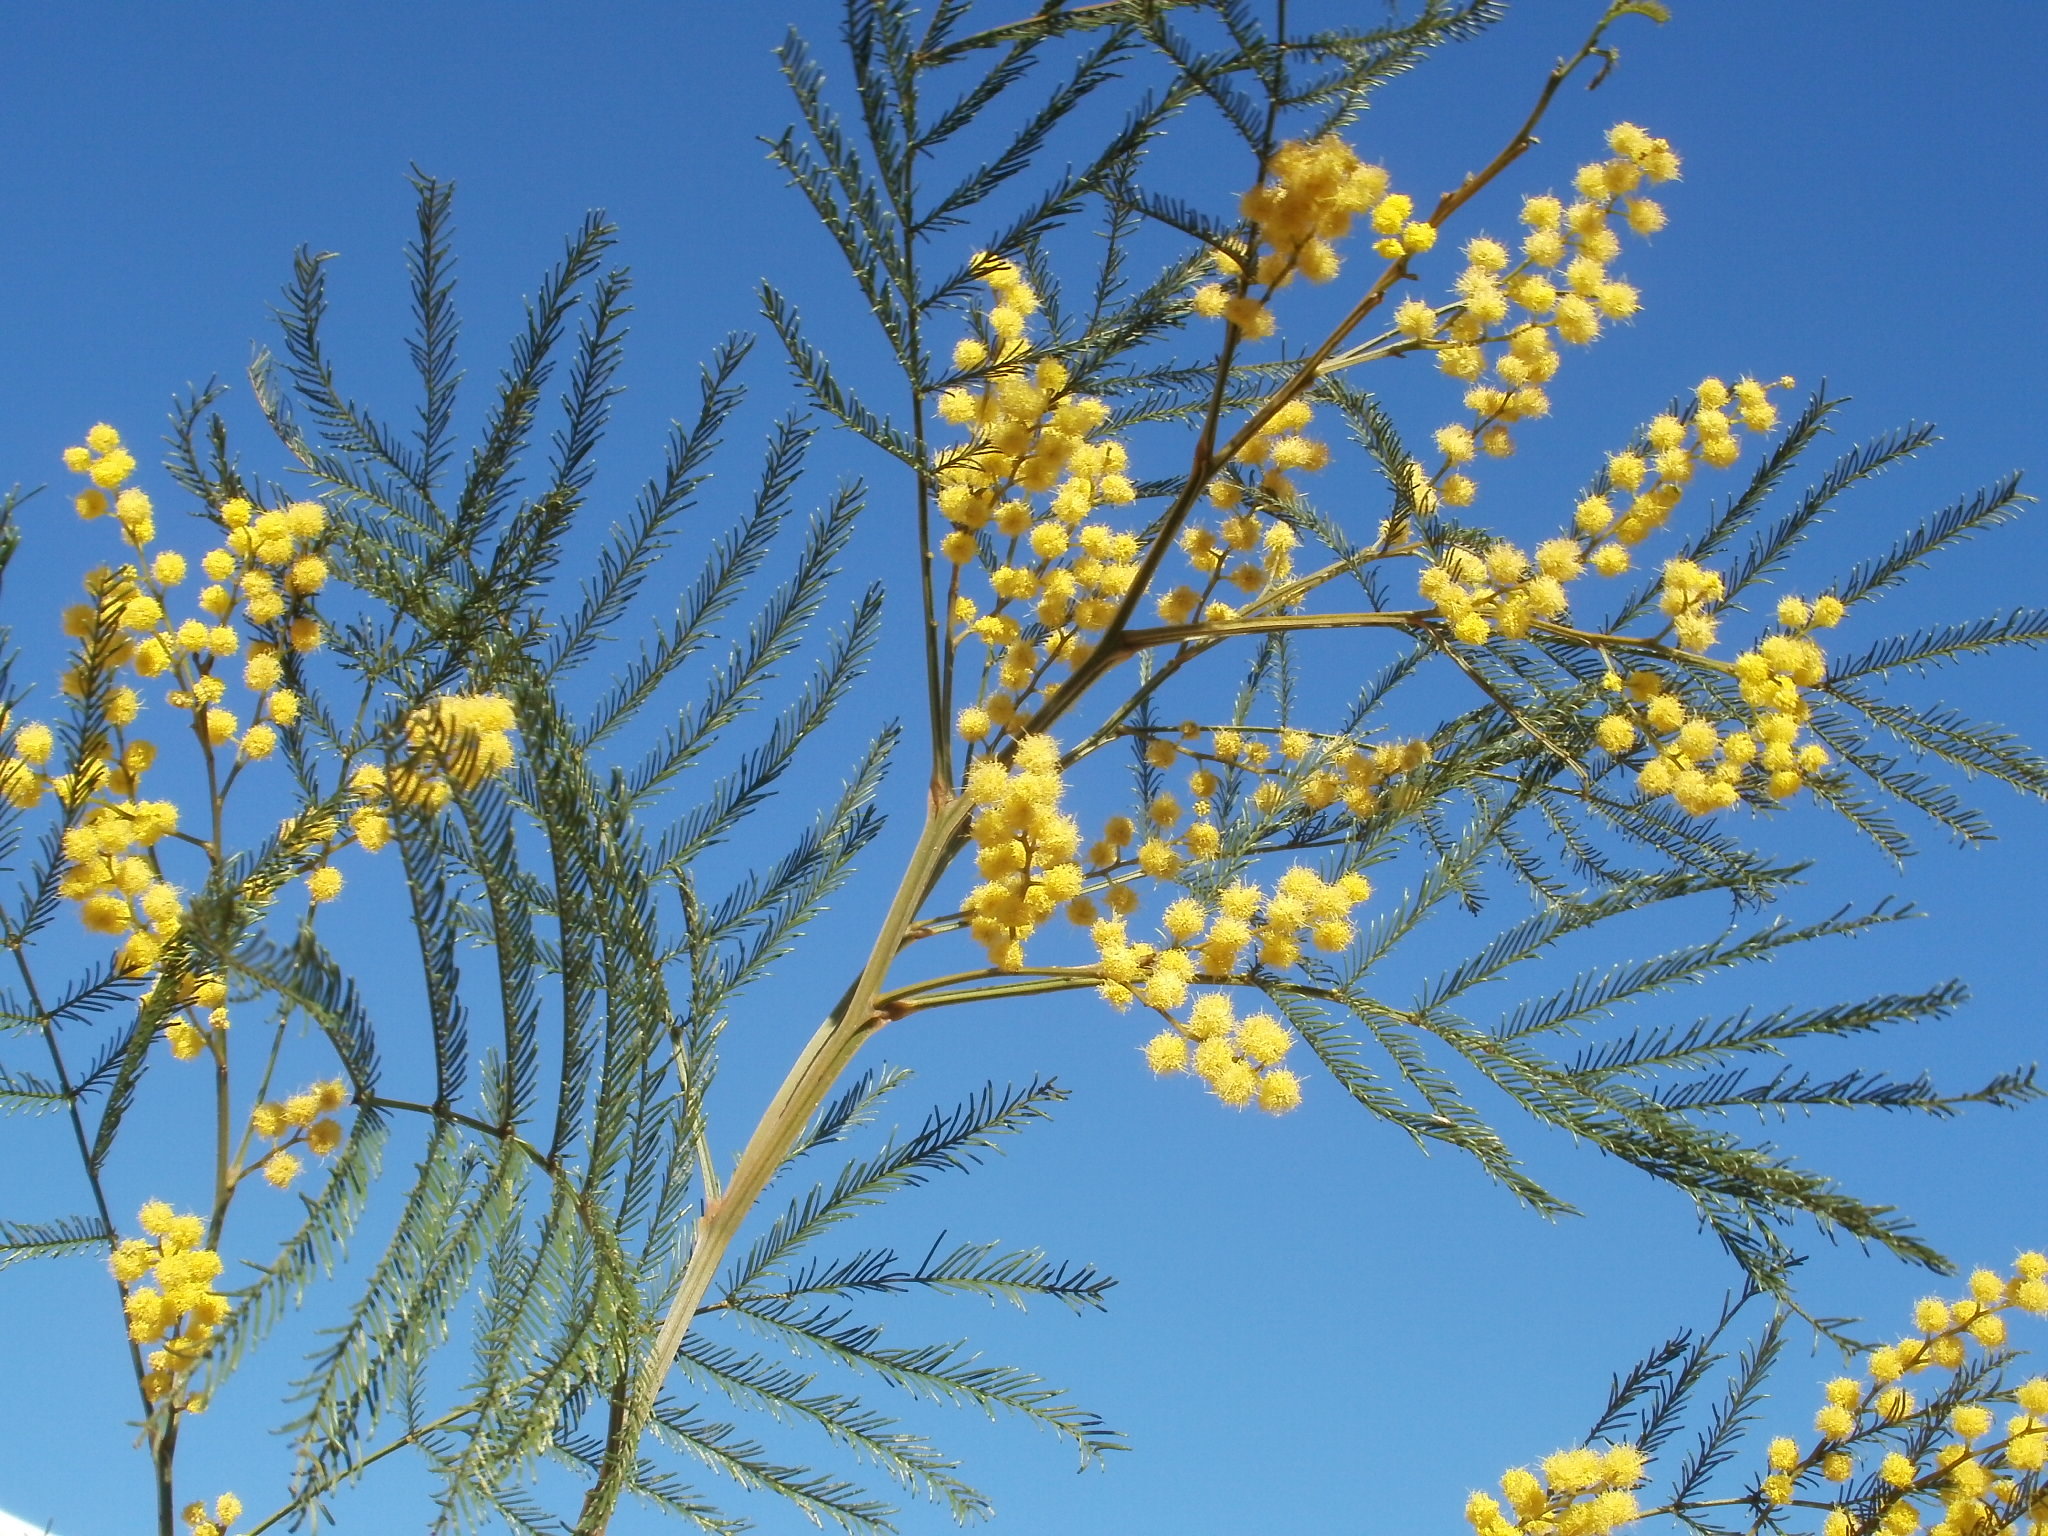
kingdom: Plantae
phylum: Tracheophyta
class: Magnoliopsida
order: Fabales
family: Fabaceae
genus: Acacia
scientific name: Acacia decurrens
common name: Green wattle
